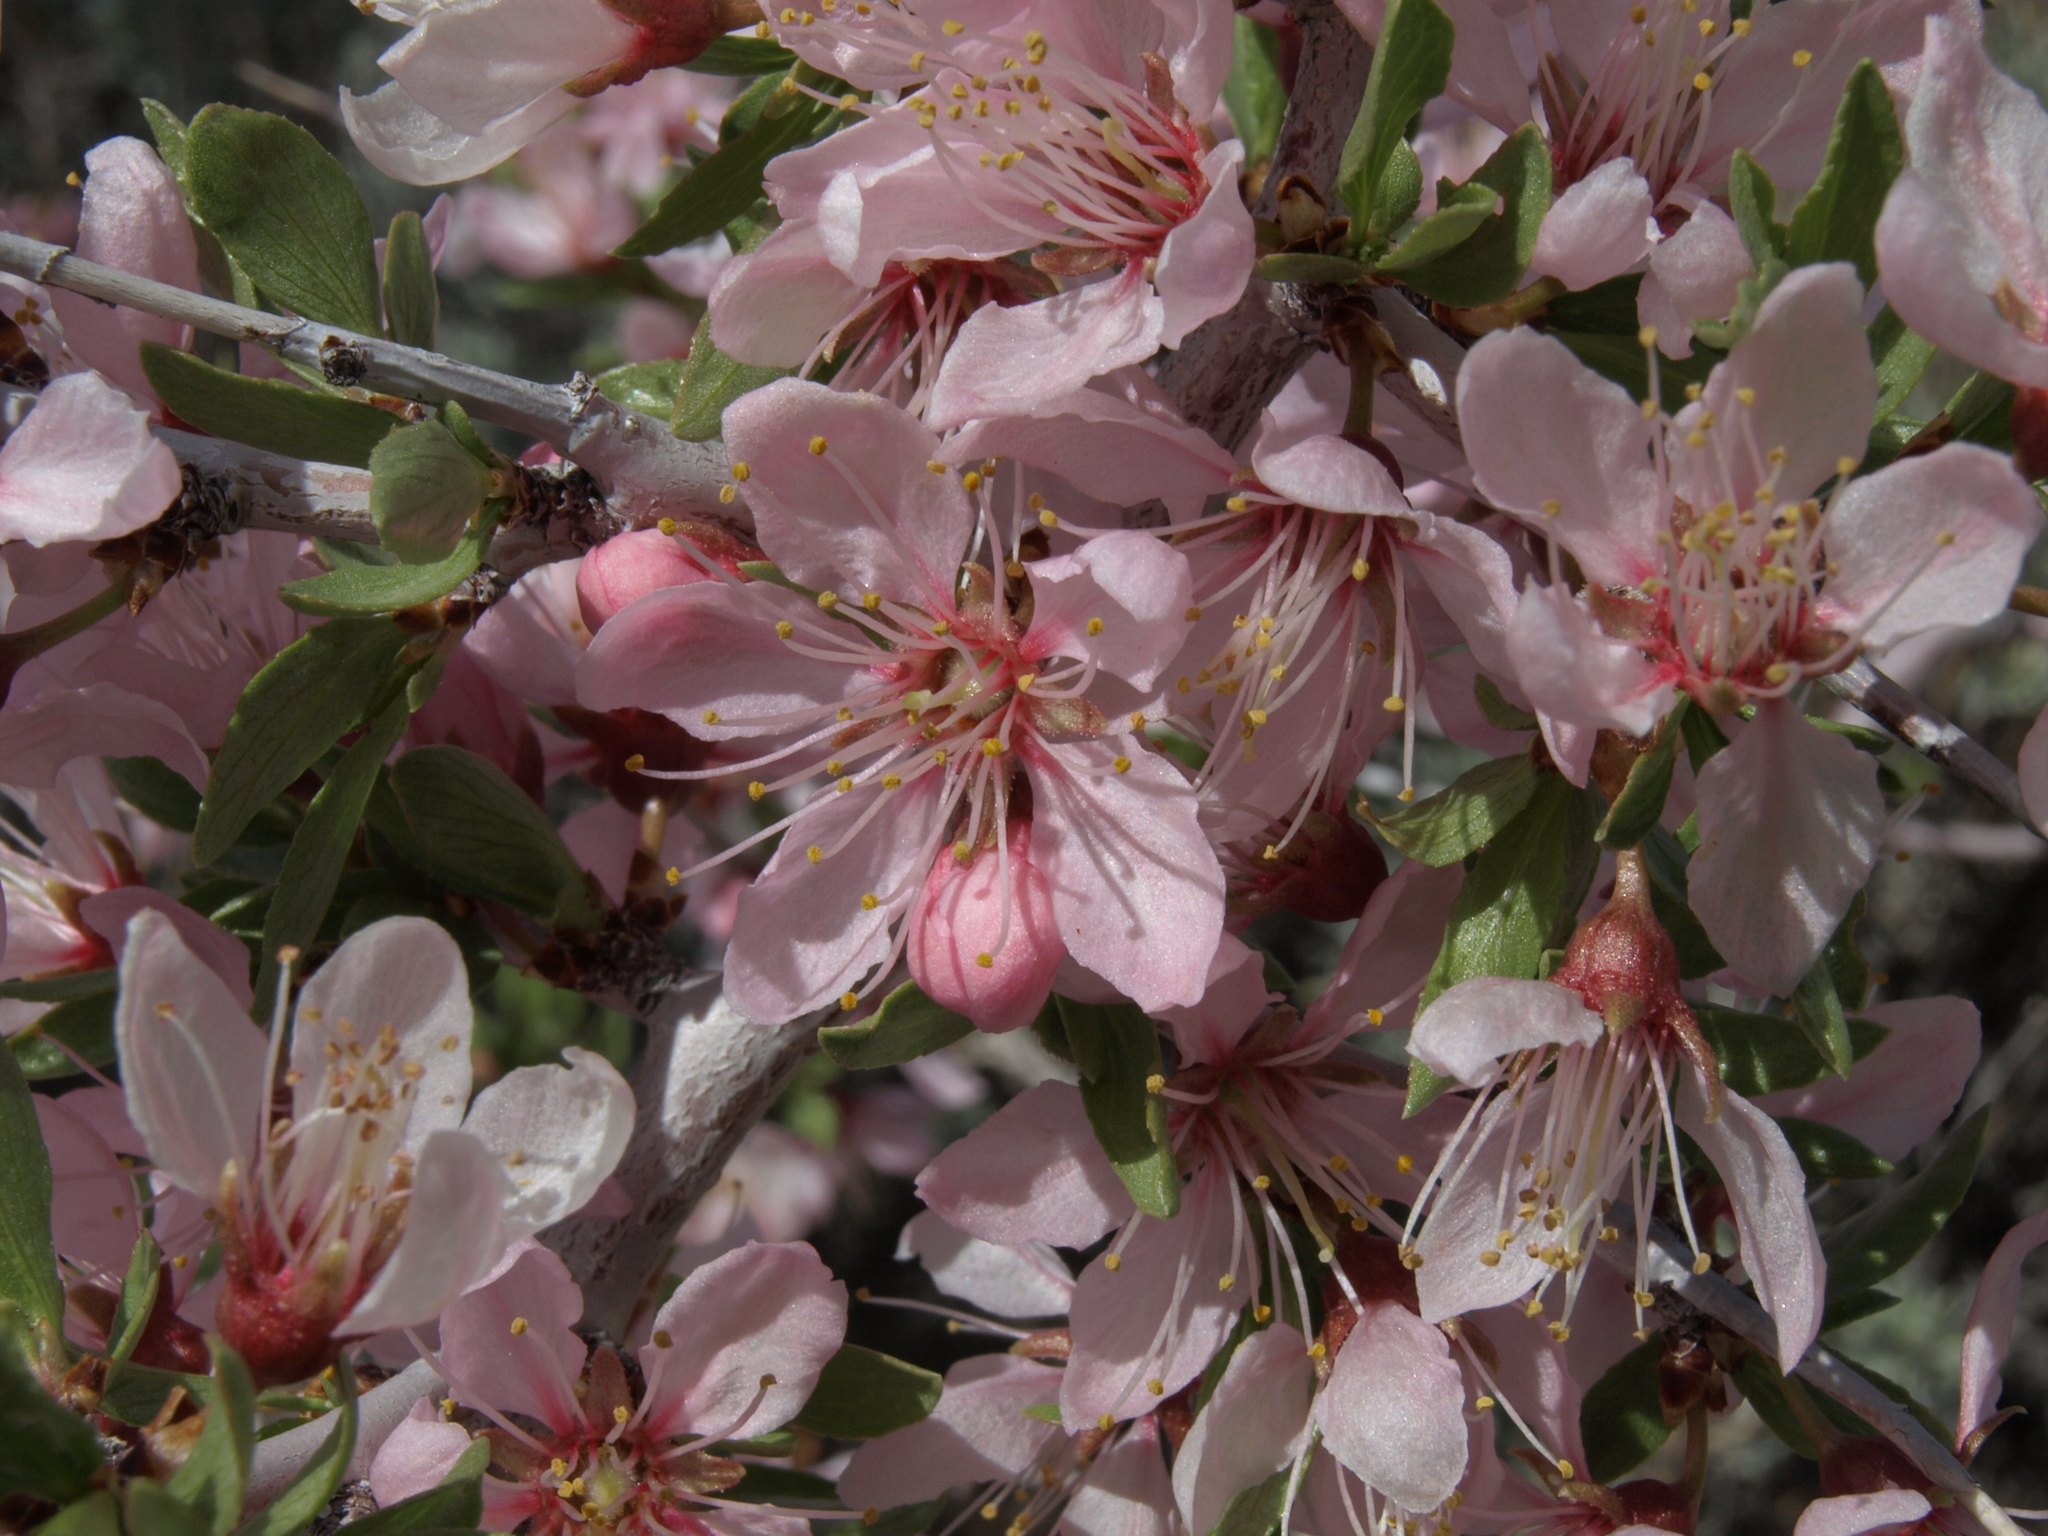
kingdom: Plantae
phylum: Tracheophyta
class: Magnoliopsida
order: Rosales
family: Rosaceae
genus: Prunus
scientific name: Prunus andersonii
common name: Desert peach
